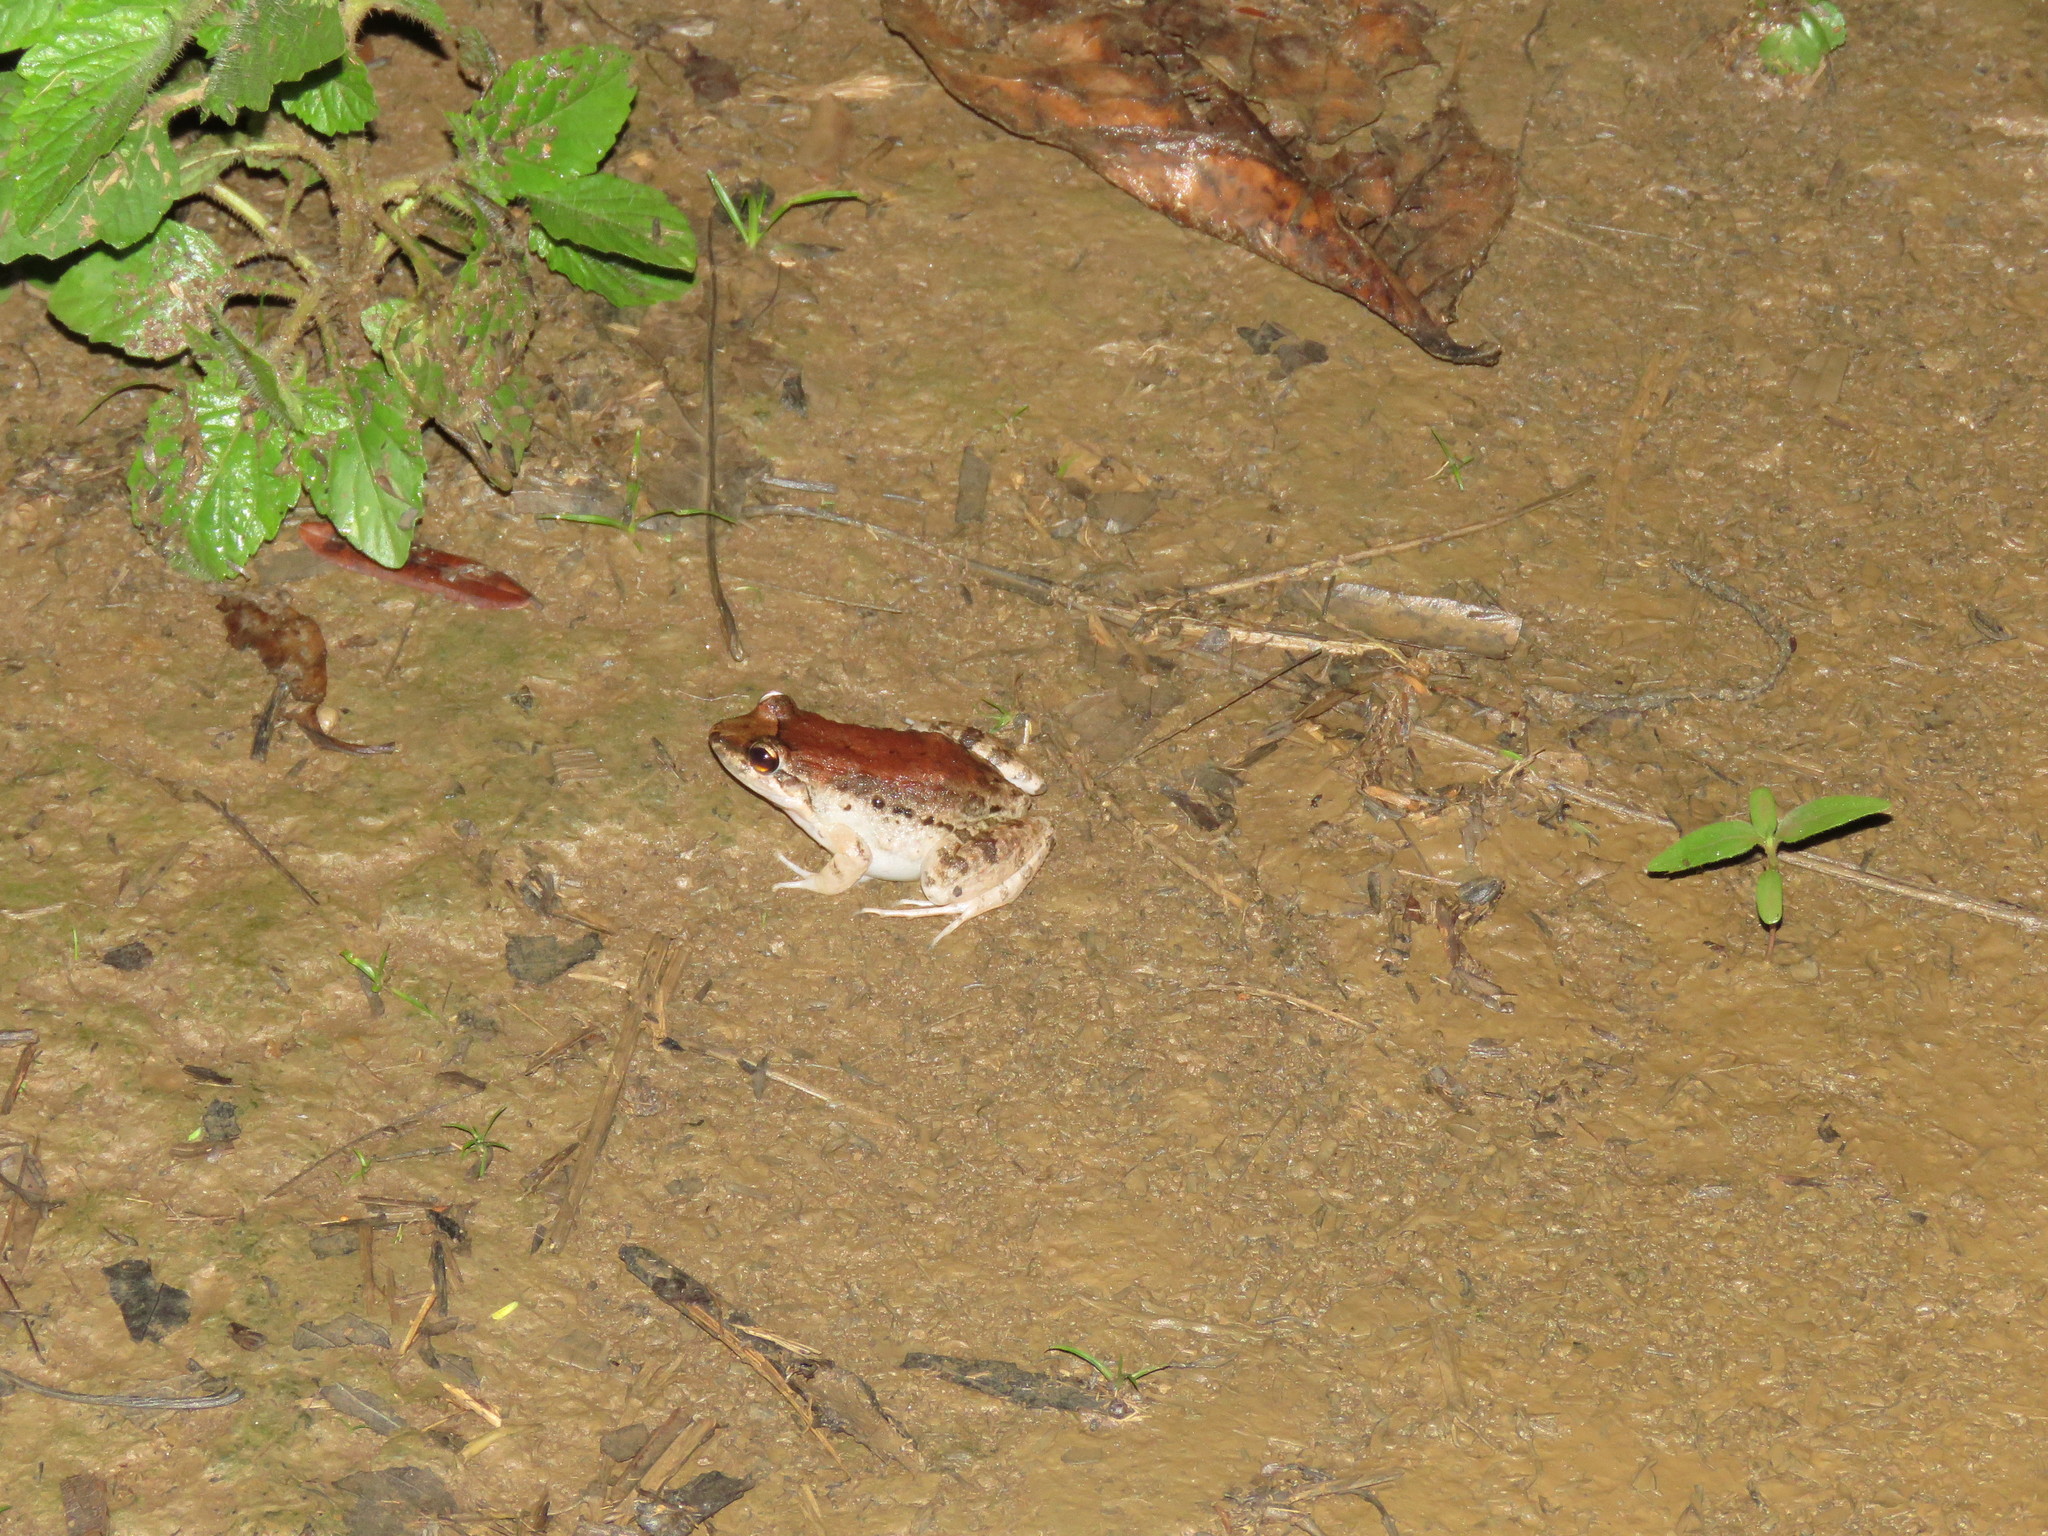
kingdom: Animalia
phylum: Chordata
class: Amphibia
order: Anura
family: Leptodactylidae
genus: Leptodactylus
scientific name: Leptodactylus leptodactyloides
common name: Common thin-toed frog
